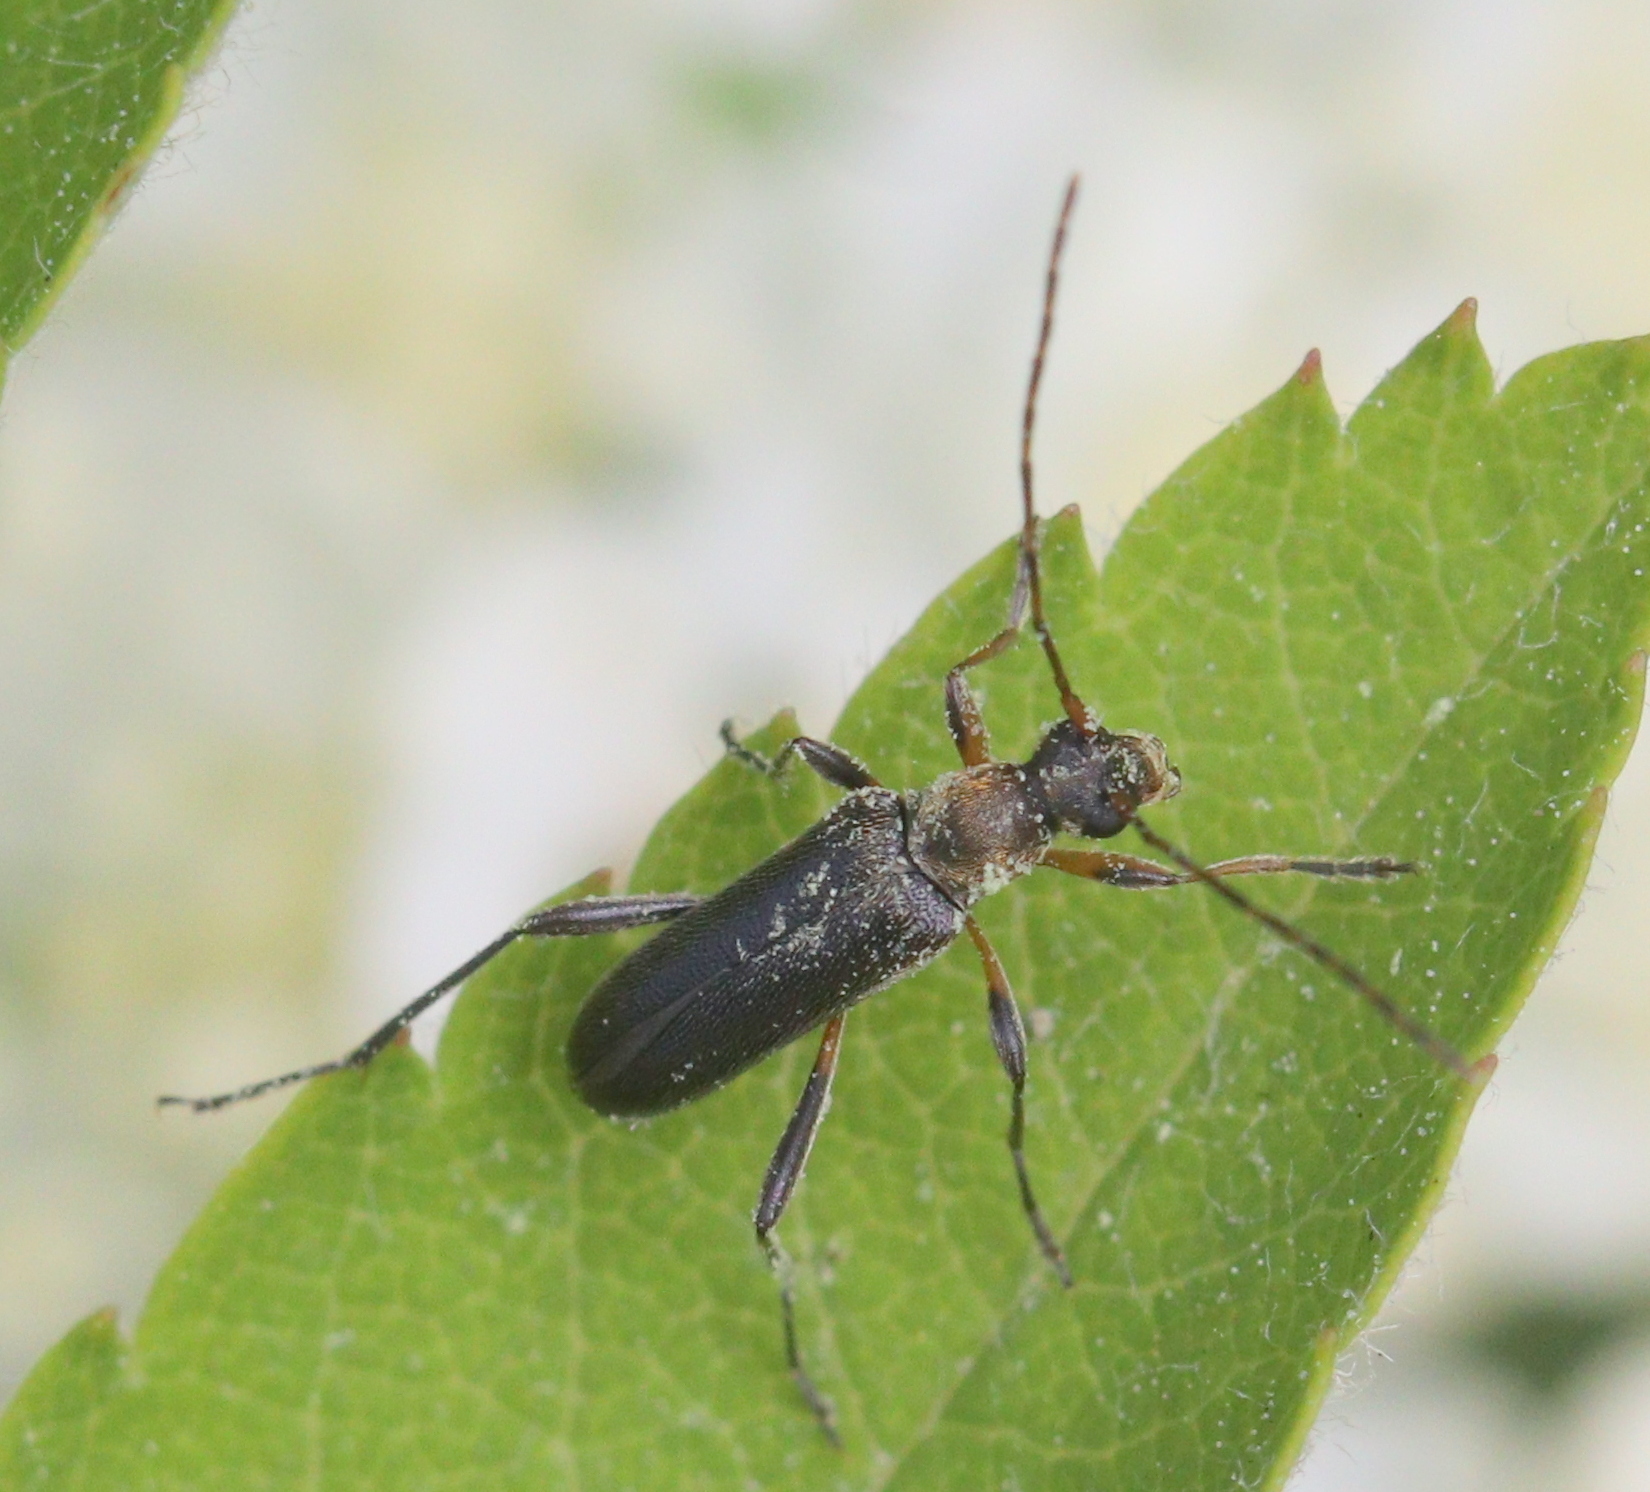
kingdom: Animalia
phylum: Arthropoda
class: Insecta
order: Coleoptera
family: Cerambycidae
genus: Grammoptera
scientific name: Grammoptera ruficornis
